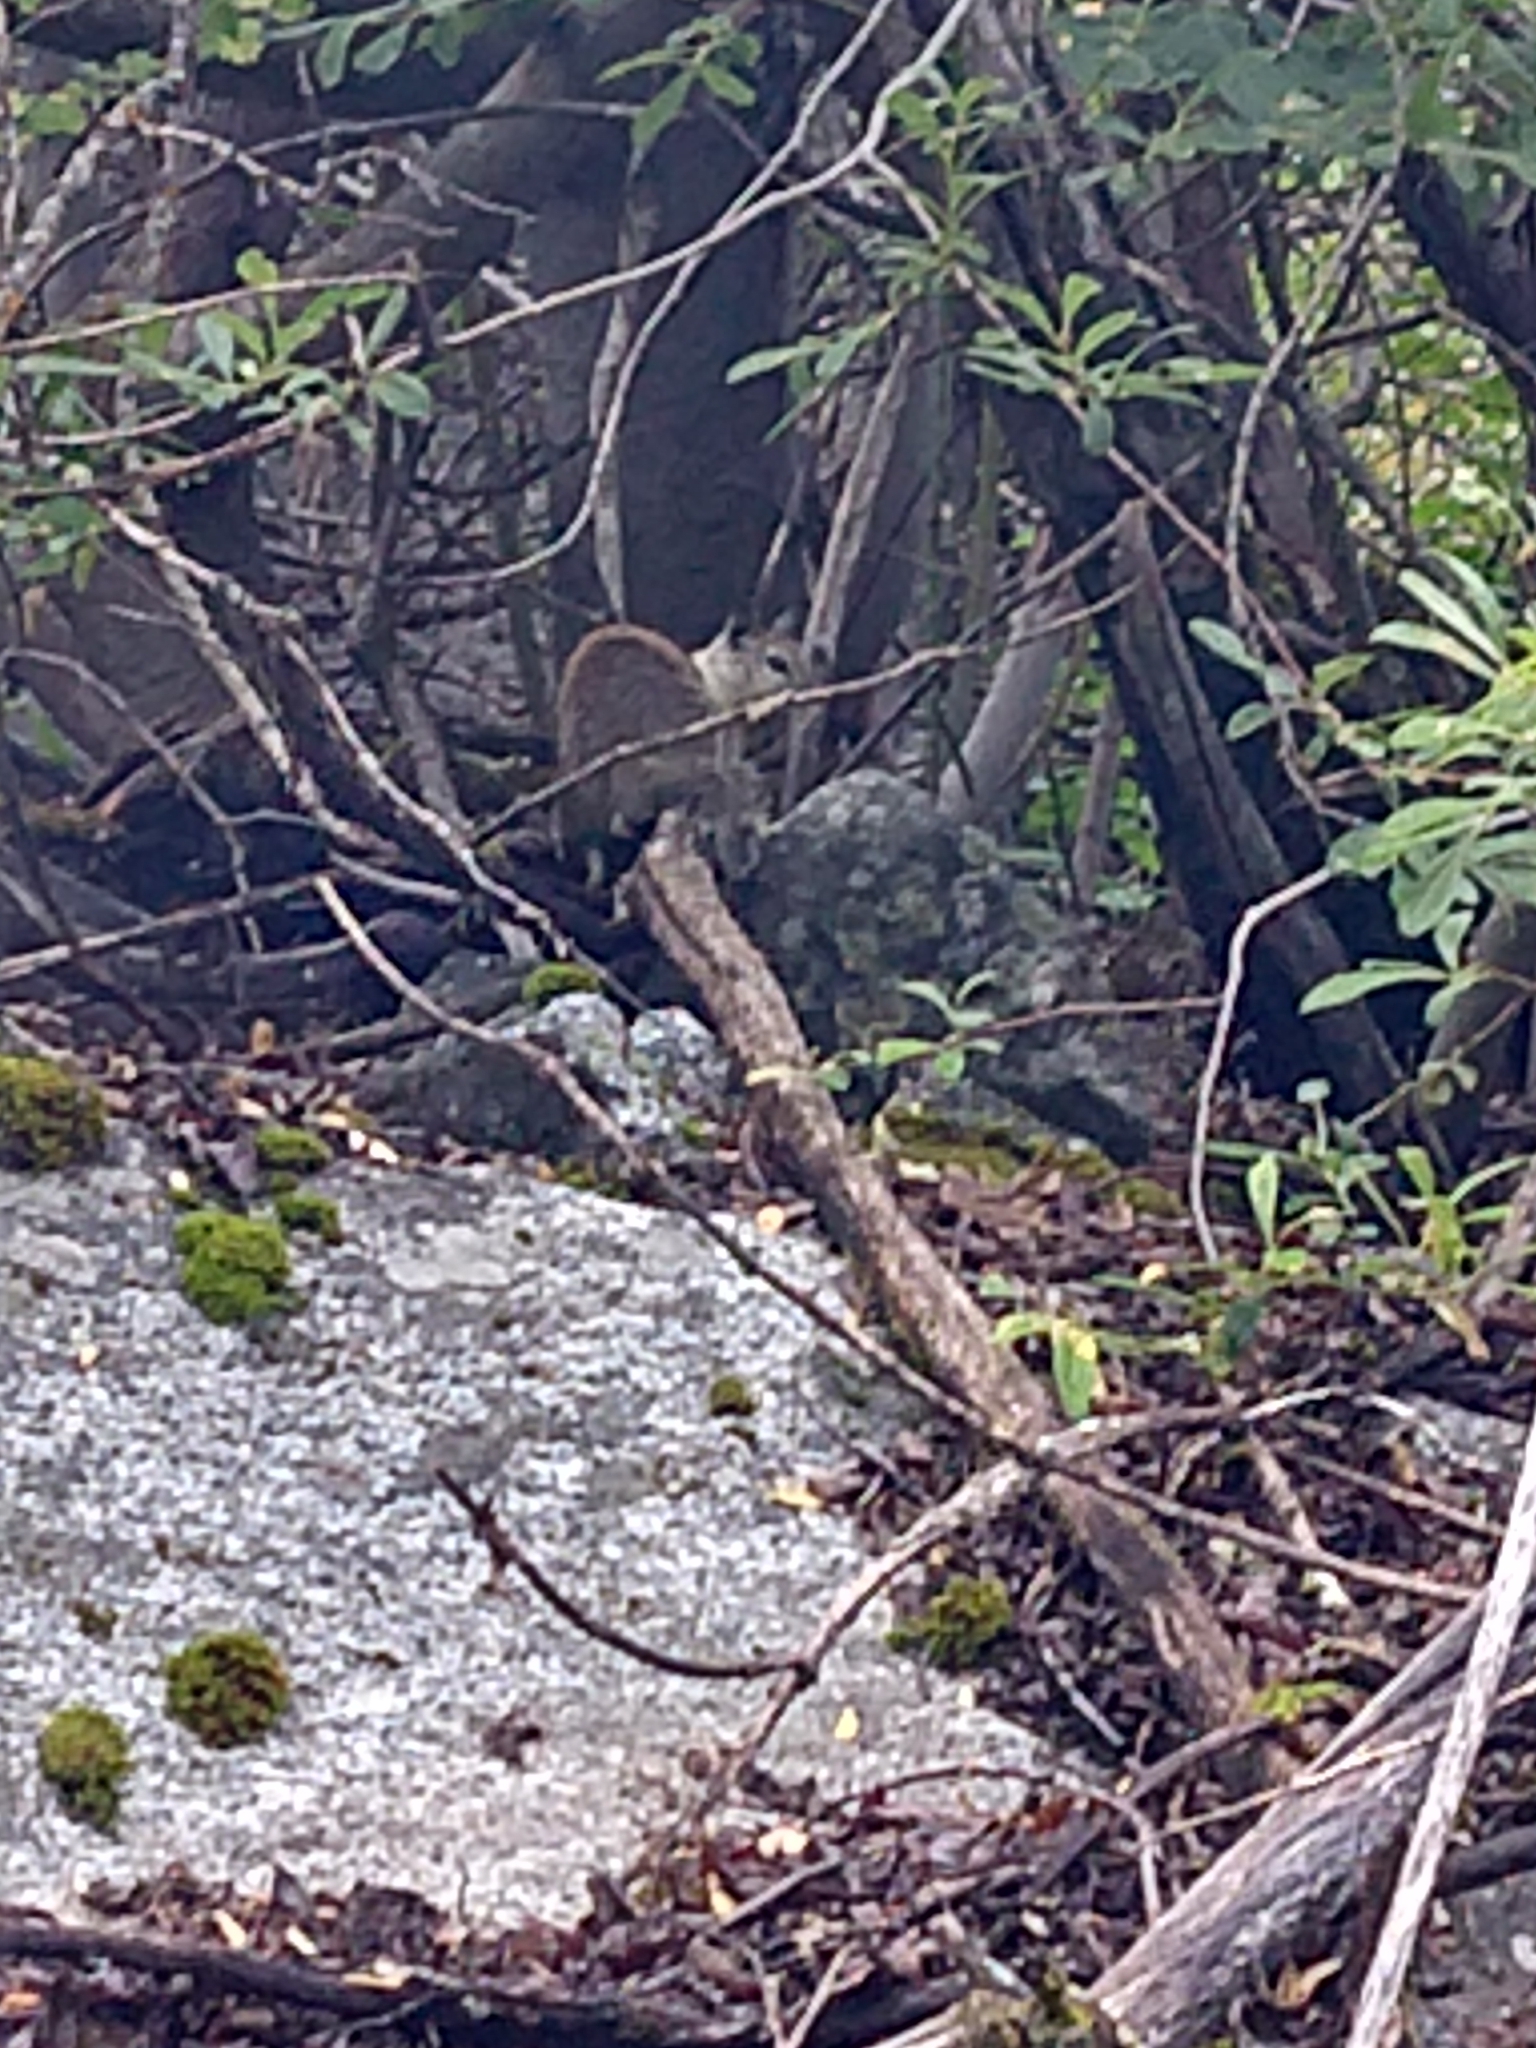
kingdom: Animalia
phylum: Chordata
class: Mammalia
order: Rodentia
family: Sciuridae
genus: Otospermophilus
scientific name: Otospermophilus beecheyi
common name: California ground squirrel
